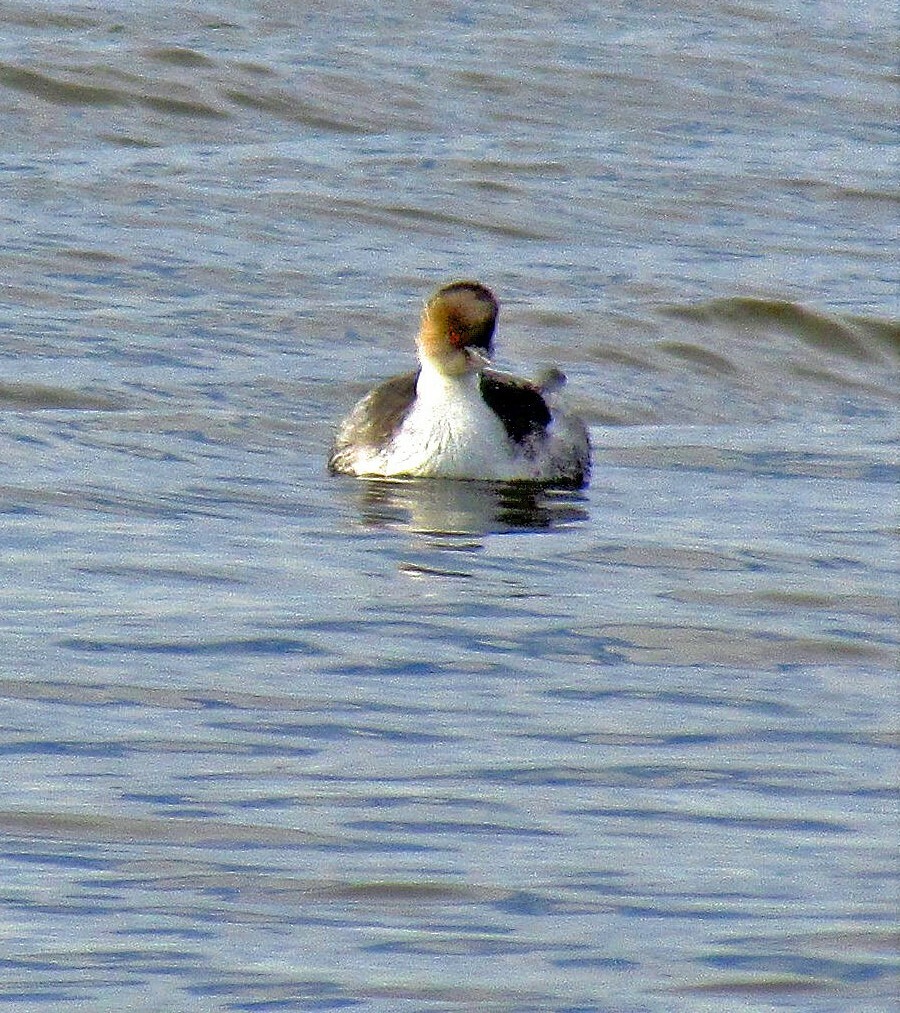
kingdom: Animalia
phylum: Chordata
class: Aves
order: Podicipediformes
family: Podicipedidae
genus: Podiceps
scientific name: Podiceps occipitalis
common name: Silvery grebe
